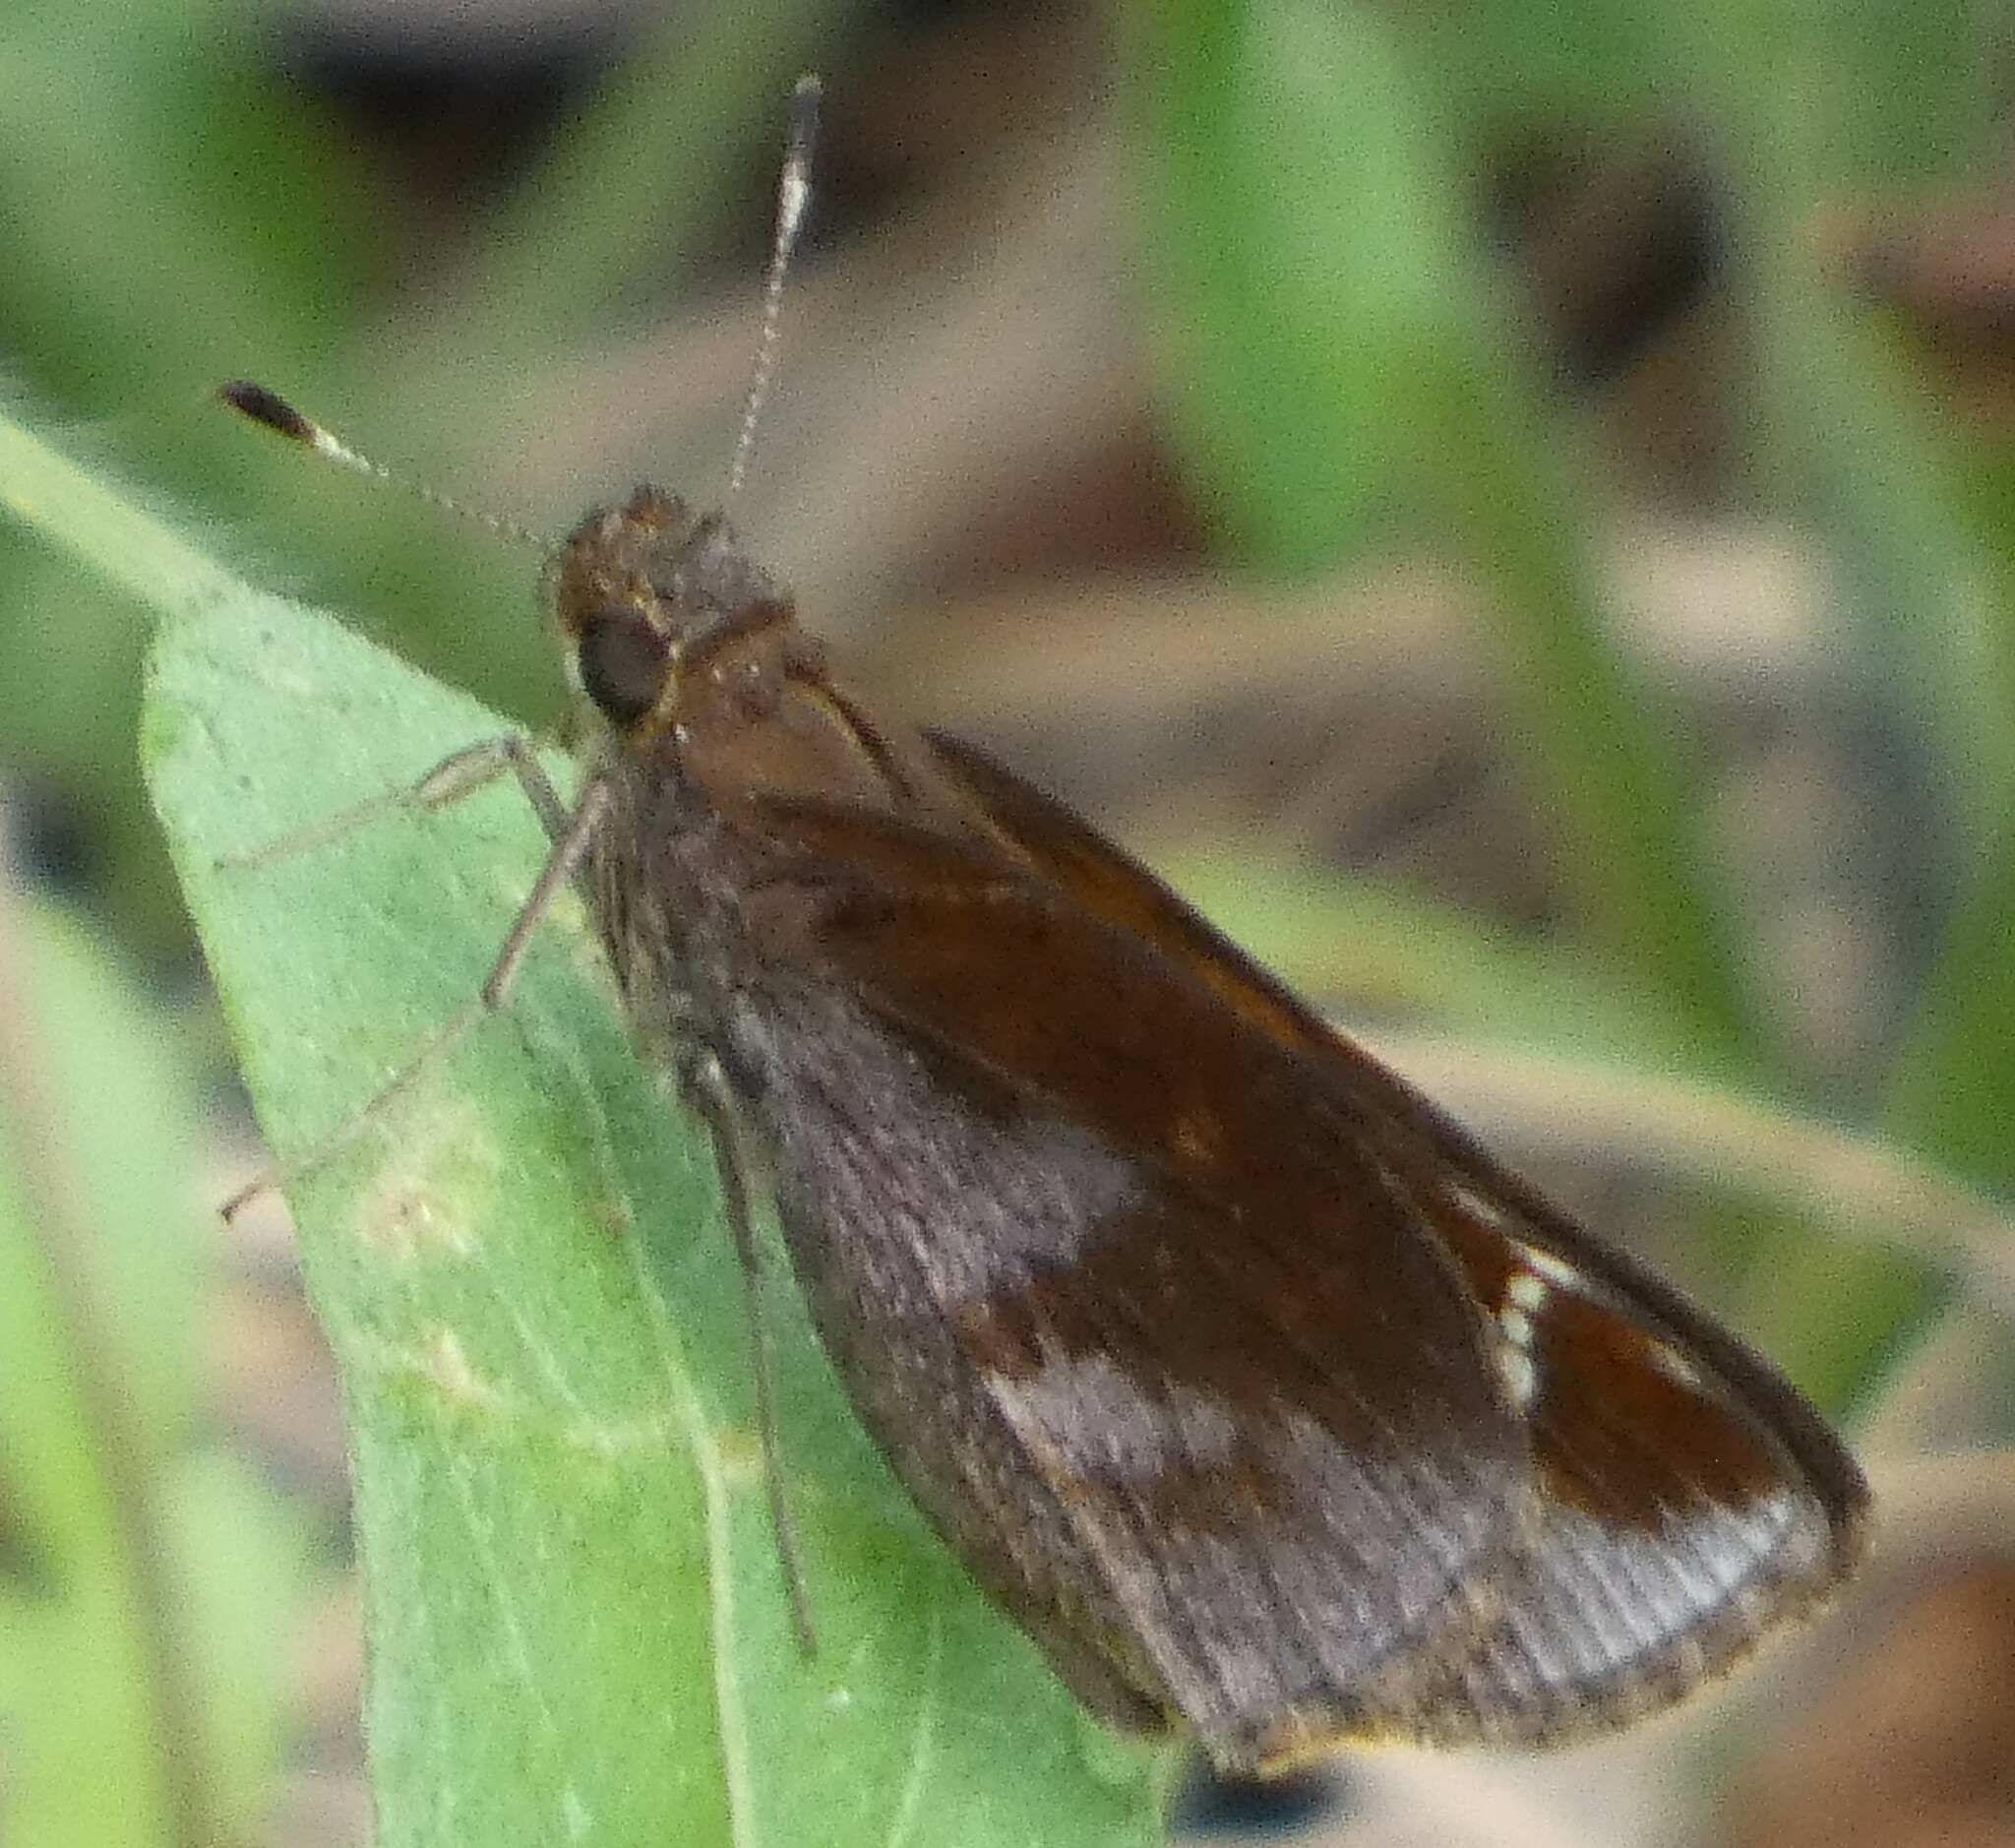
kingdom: Animalia
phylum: Arthropoda
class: Insecta
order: Lepidoptera
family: Hesperiidae
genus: Lerema
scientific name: Lerema accius
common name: Clouded skipper
